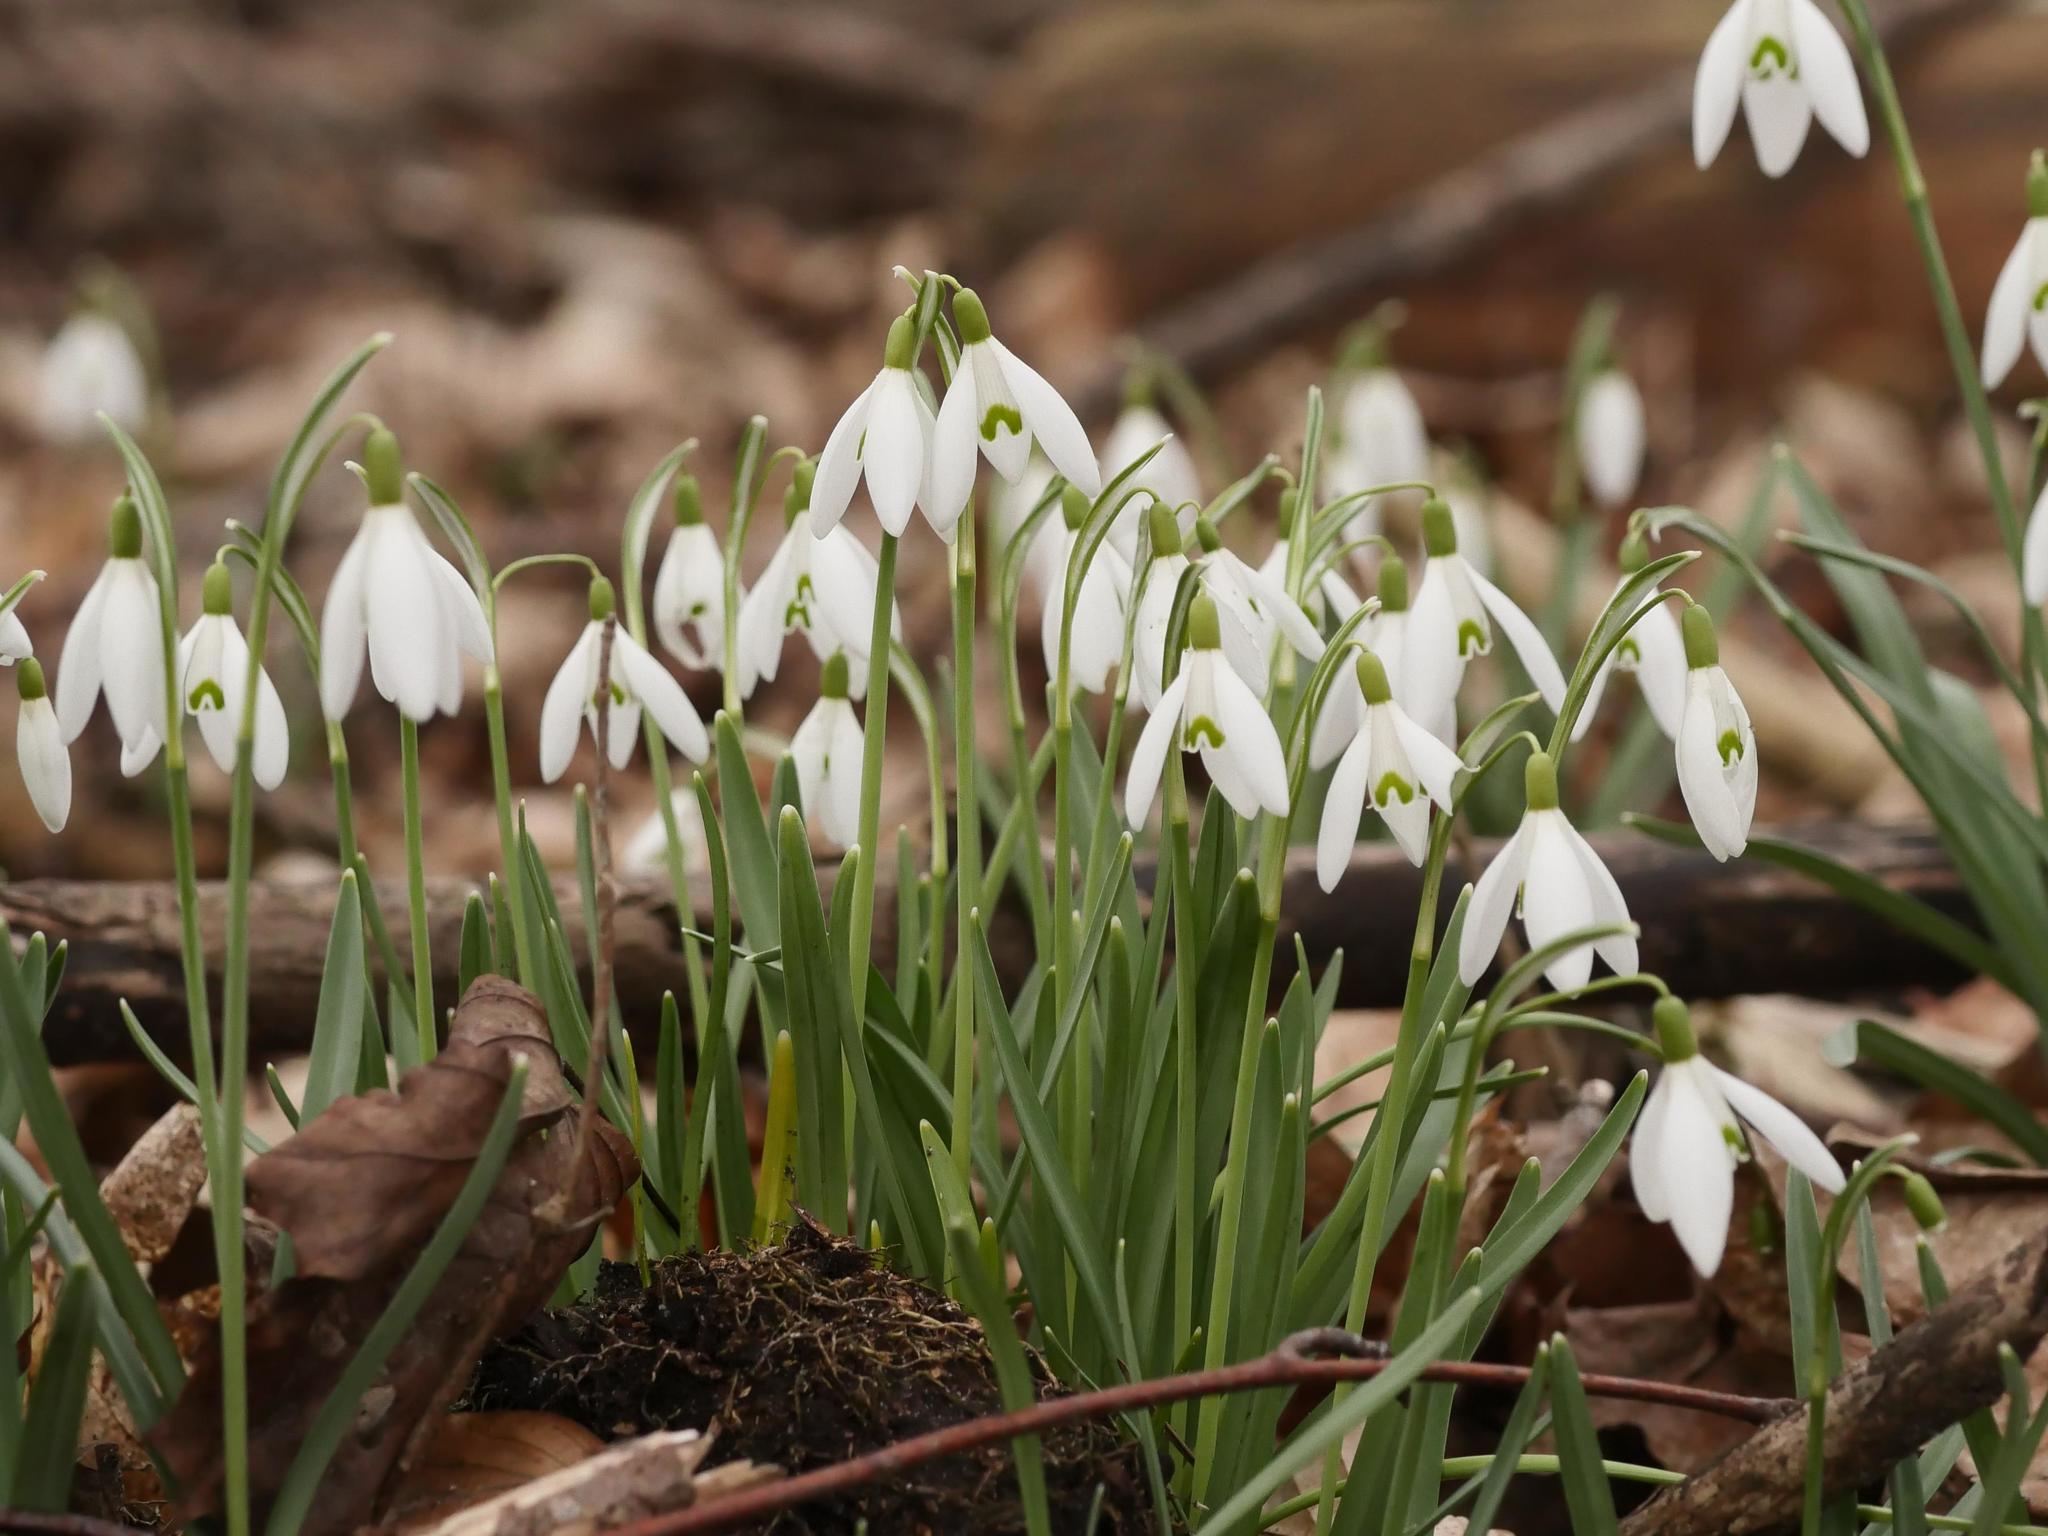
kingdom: Plantae
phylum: Tracheophyta
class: Liliopsida
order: Asparagales
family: Amaryllidaceae
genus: Galanthus
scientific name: Galanthus nivalis
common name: Snowdrop
